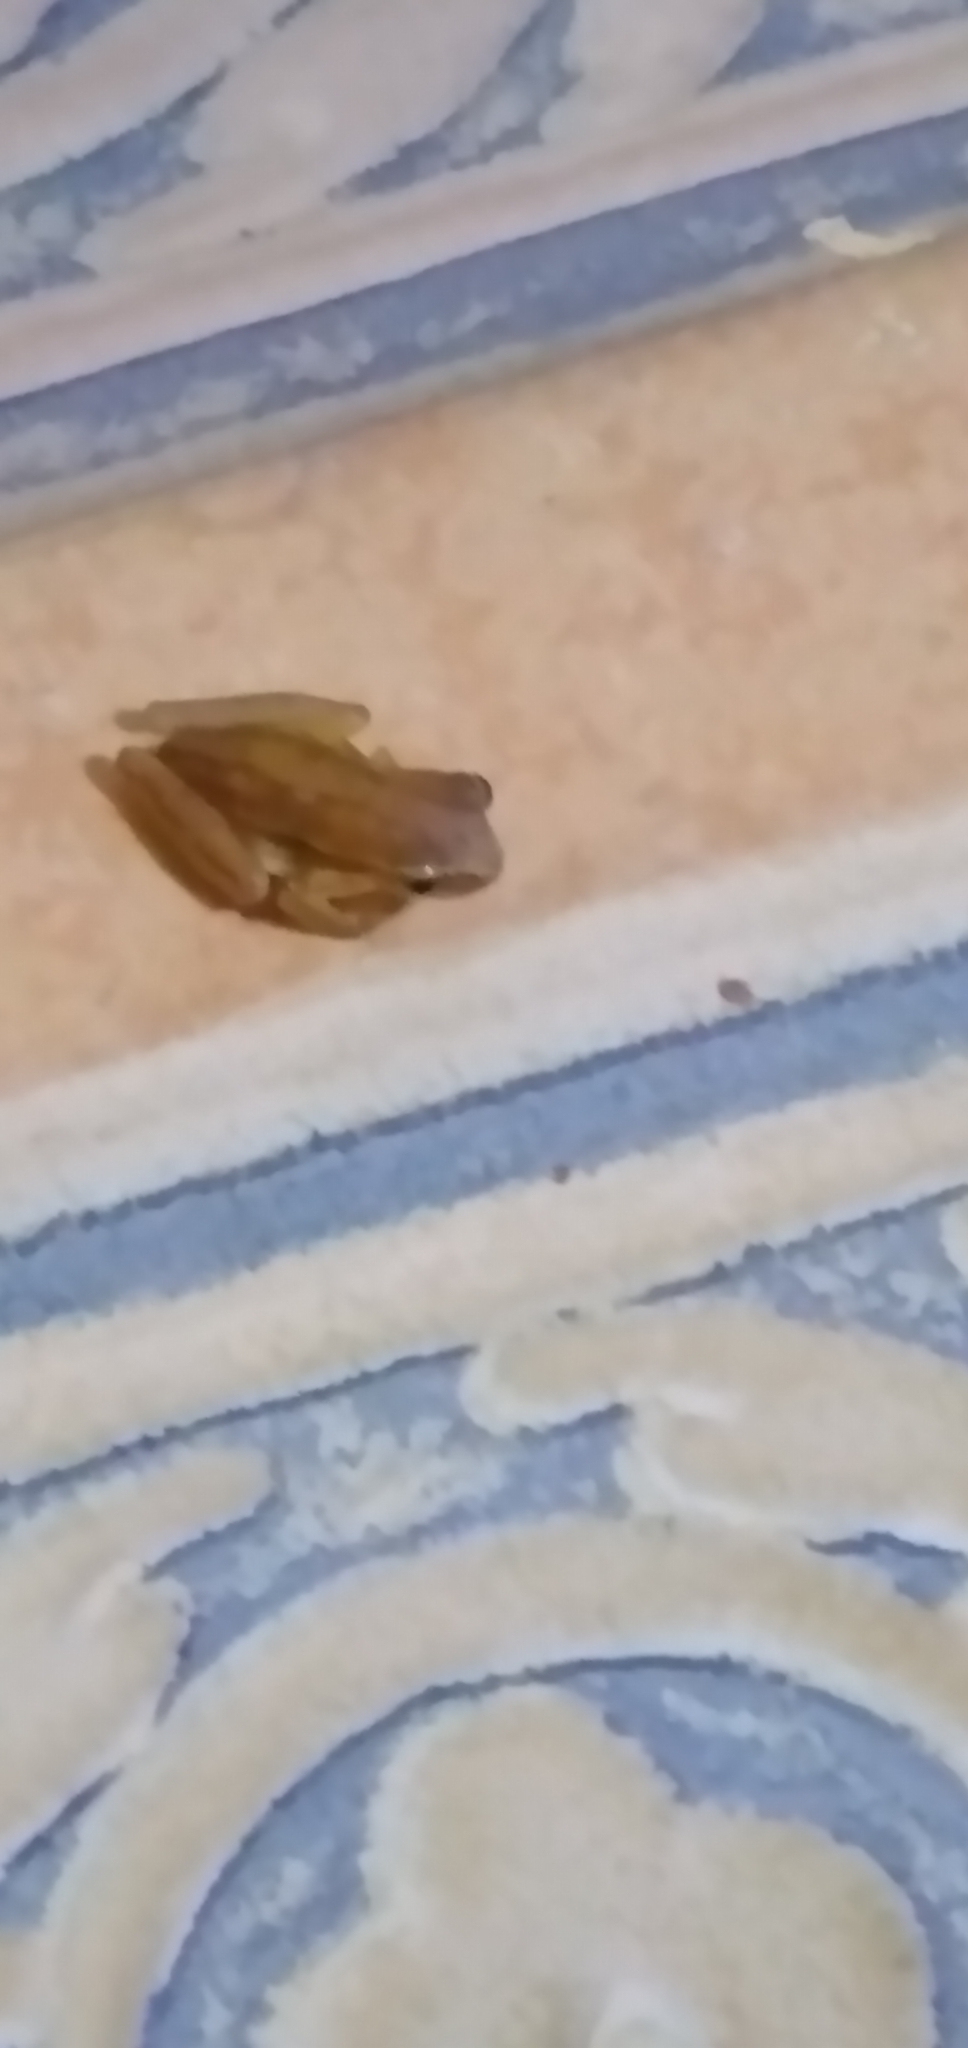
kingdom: Animalia
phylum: Chordata
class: Amphibia
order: Anura
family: Hylidae
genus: Dendropsophus
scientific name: Dendropsophus microcephalus
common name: Small-headed treefrog
